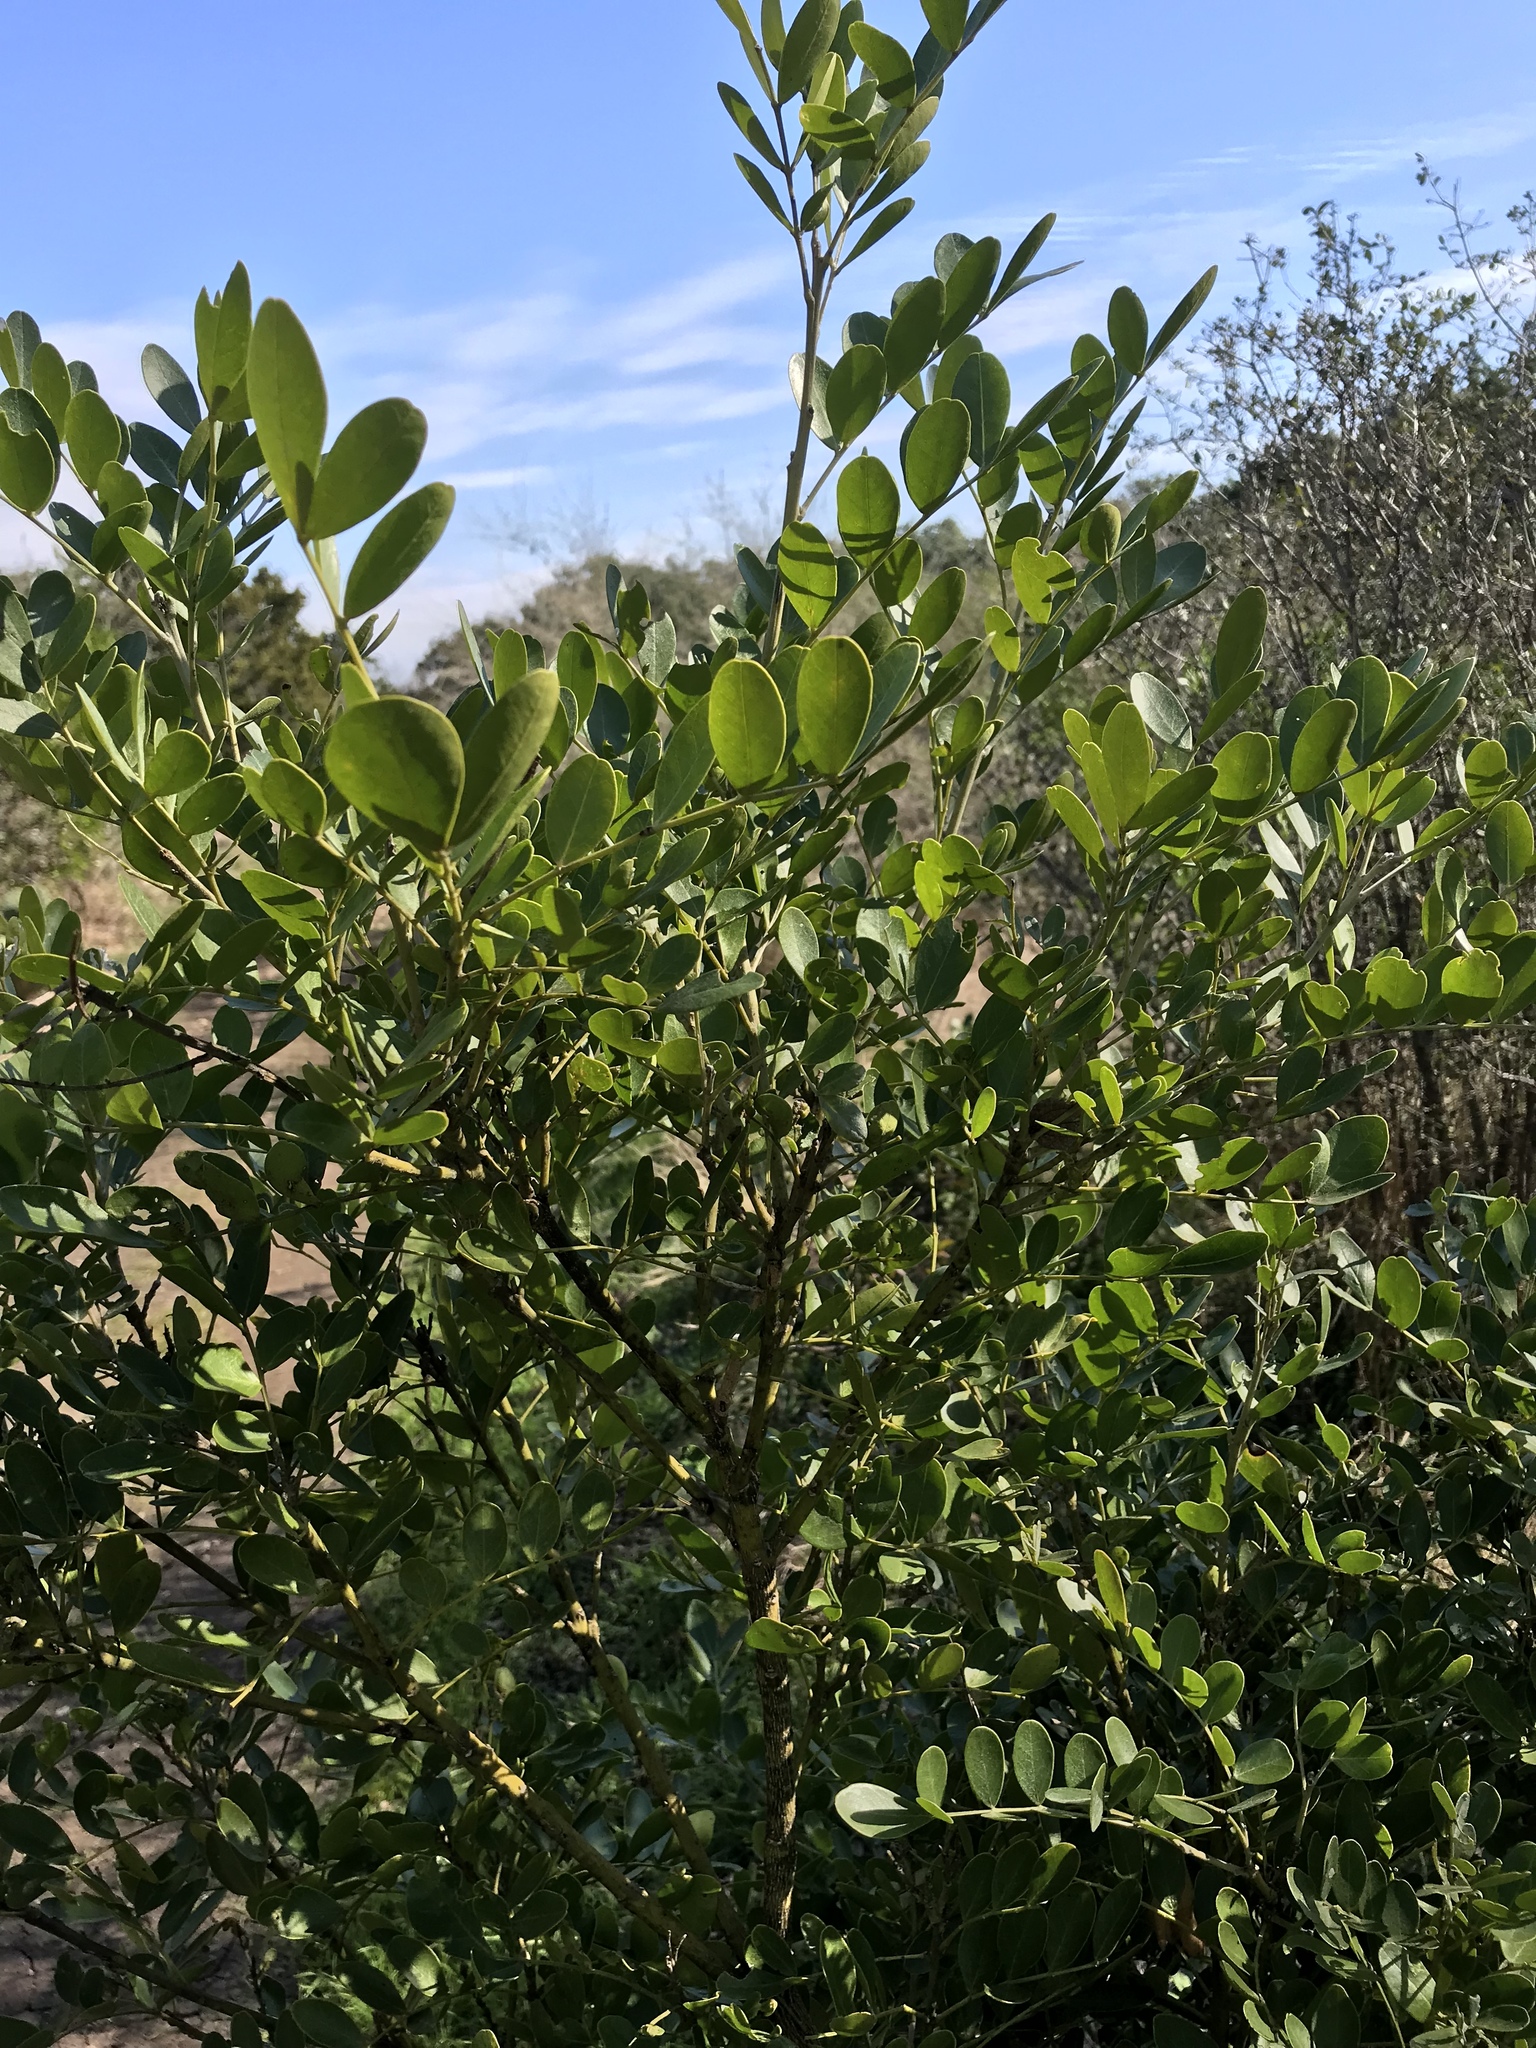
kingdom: Plantae
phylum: Tracheophyta
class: Magnoliopsida
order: Fabales
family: Fabaceae
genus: Dermatophyllum
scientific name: Dermatophyllum secundiflorum
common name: Texas-mountain-laurel
